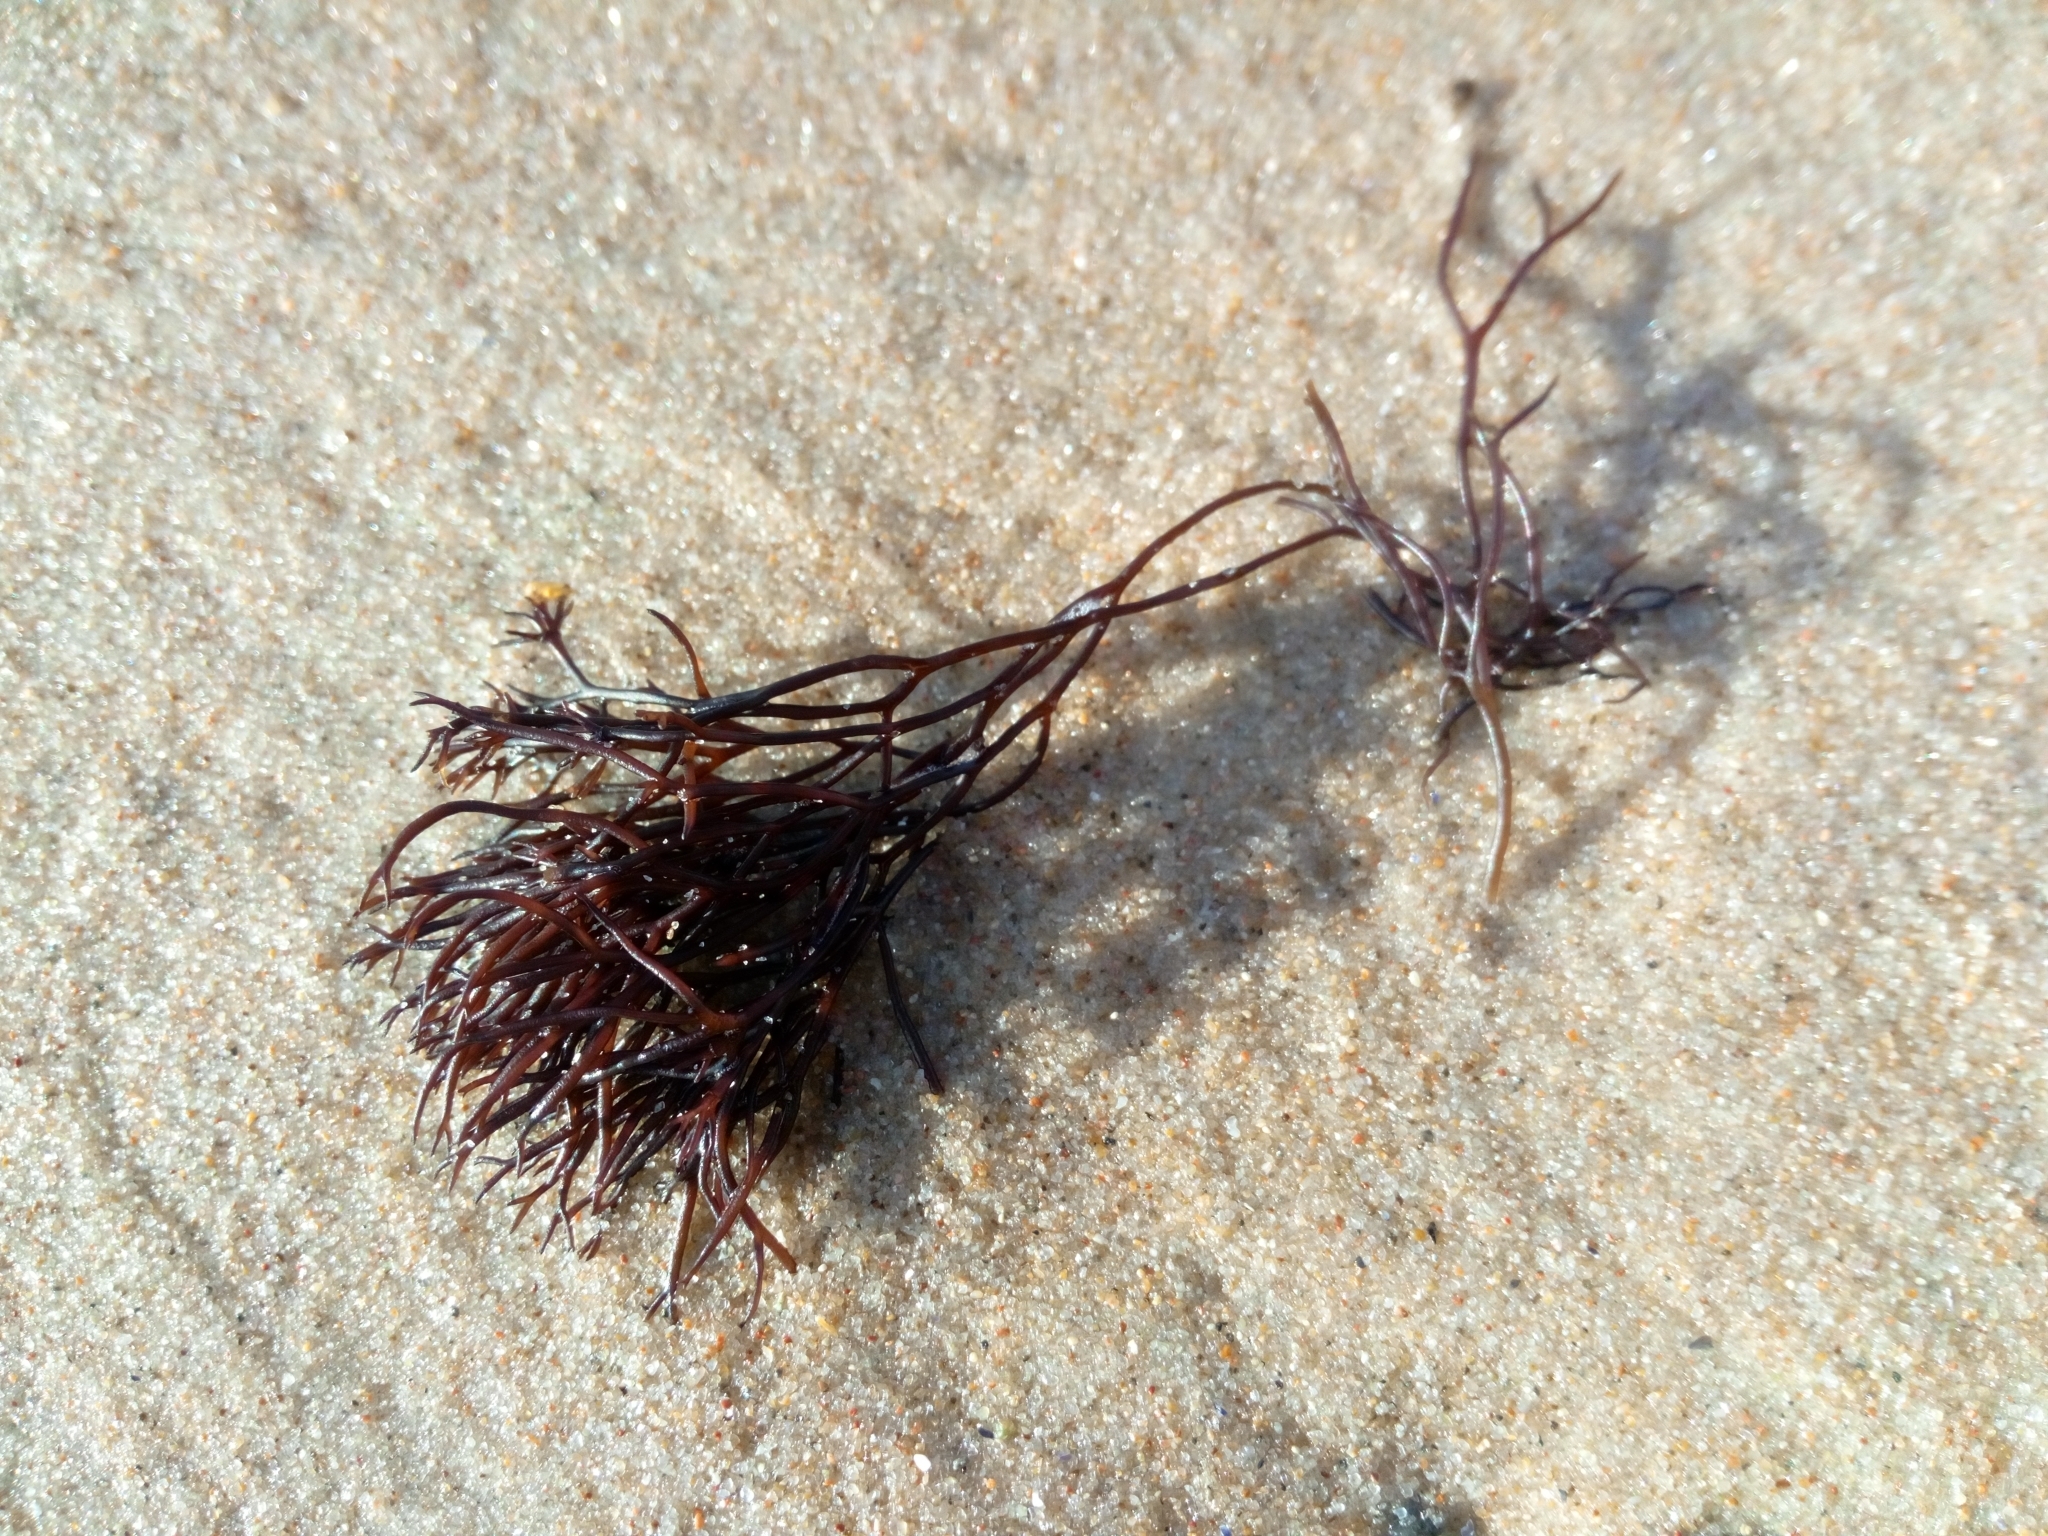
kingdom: Plantae
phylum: Rhodophyta
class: Florideophyceae
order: Gigartinales
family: Furcellariaceae
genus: Furcellaria
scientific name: Furcellaria lumbricalis
